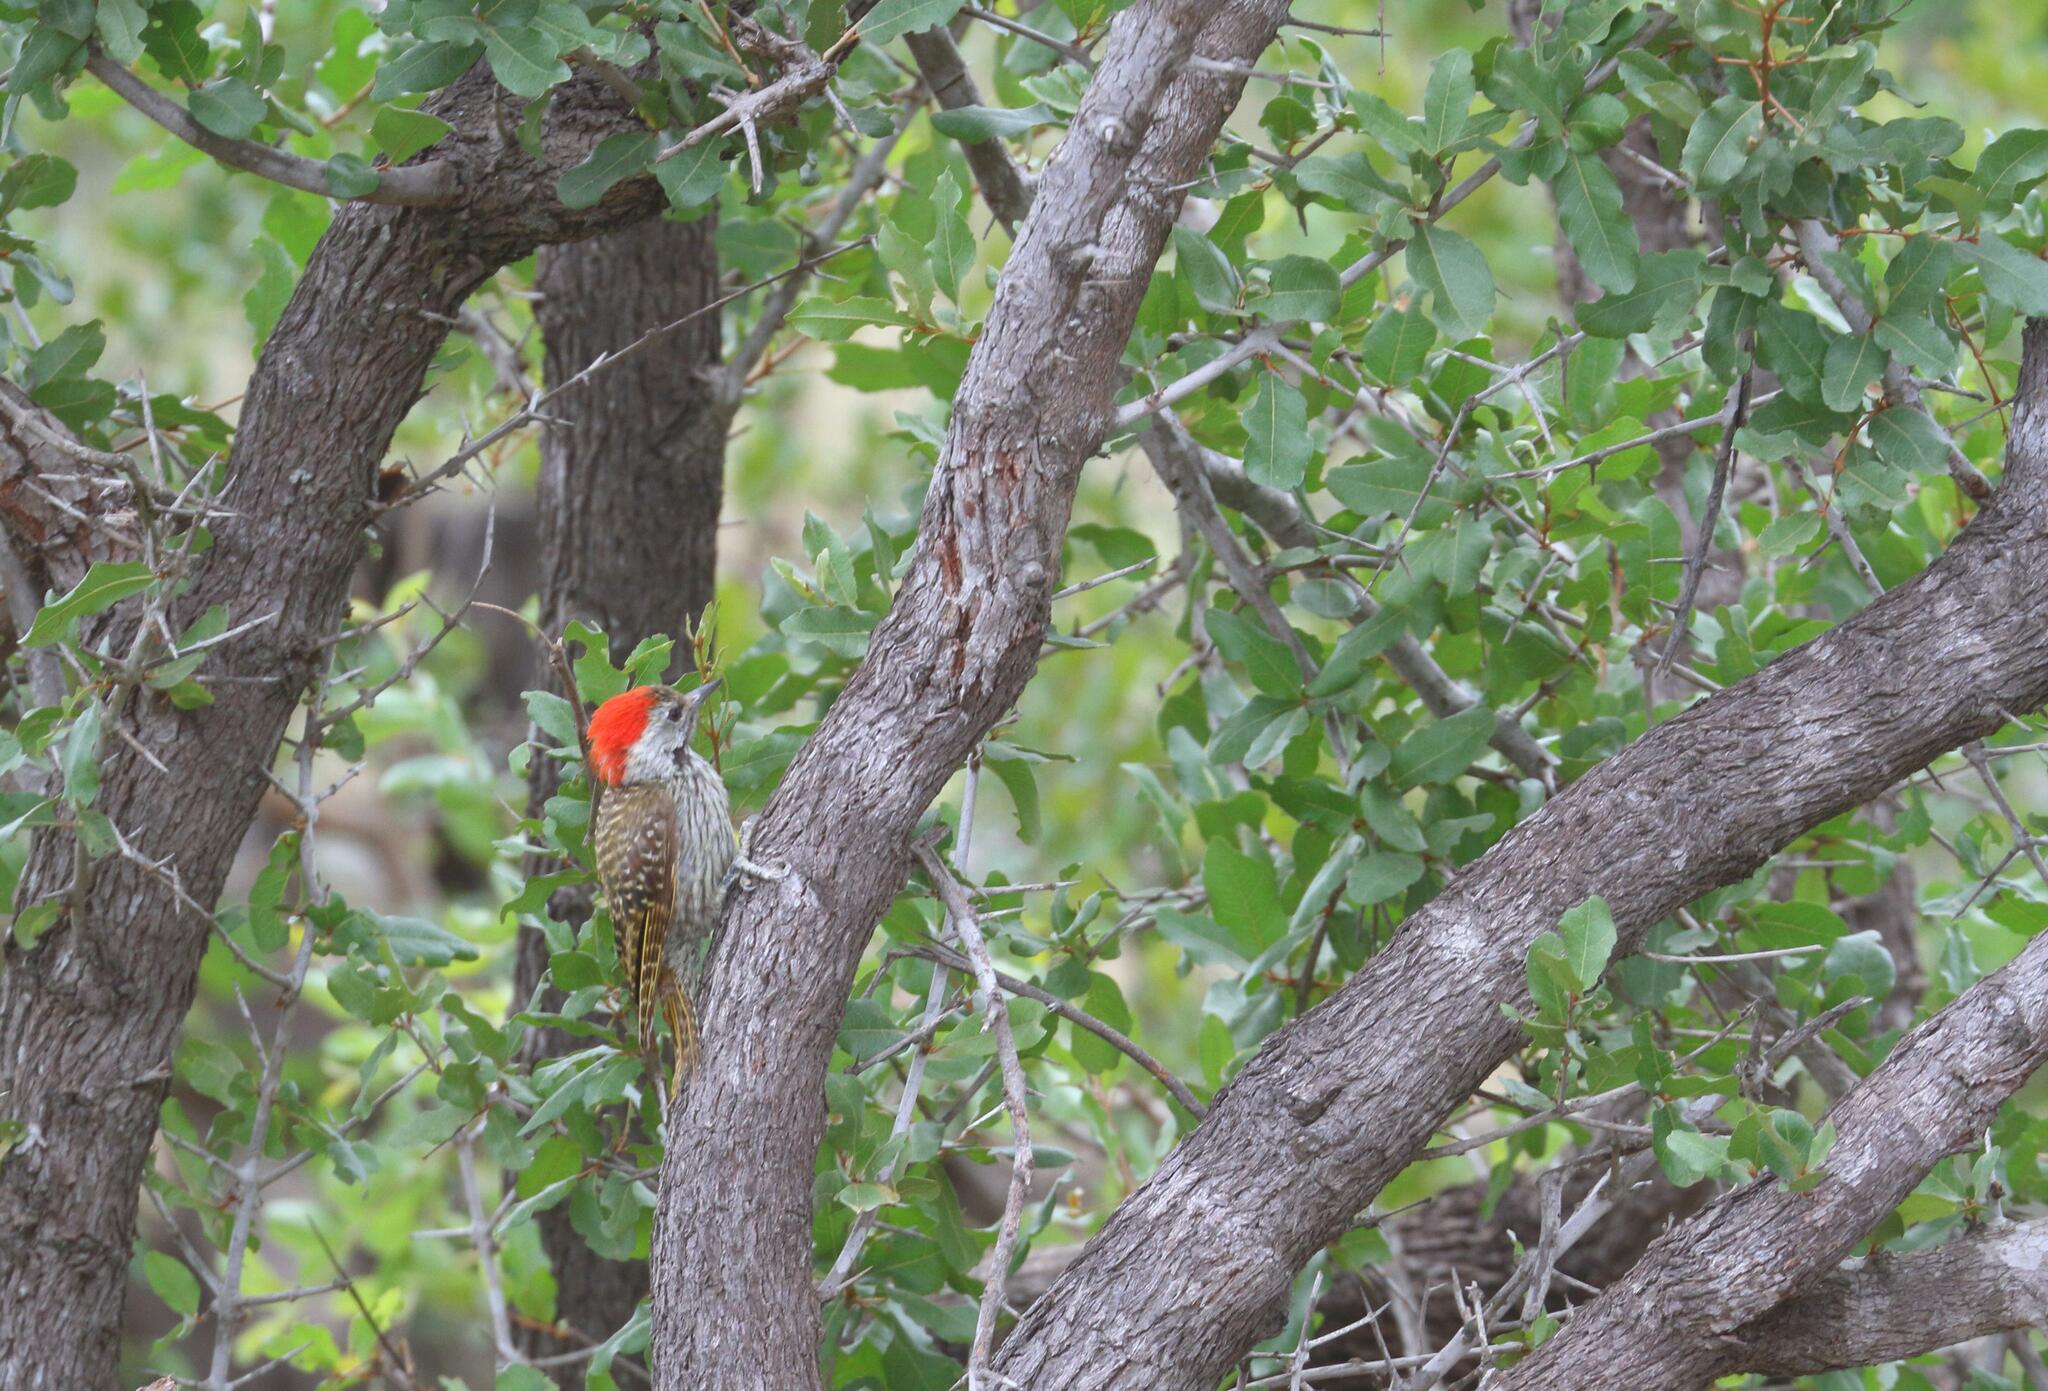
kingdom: Animalia
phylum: Chordata
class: Aves
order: Piciformes
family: Picidae
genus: Dendropicos
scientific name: Dendropicos fuscescens
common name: Cardinal woodpecker
